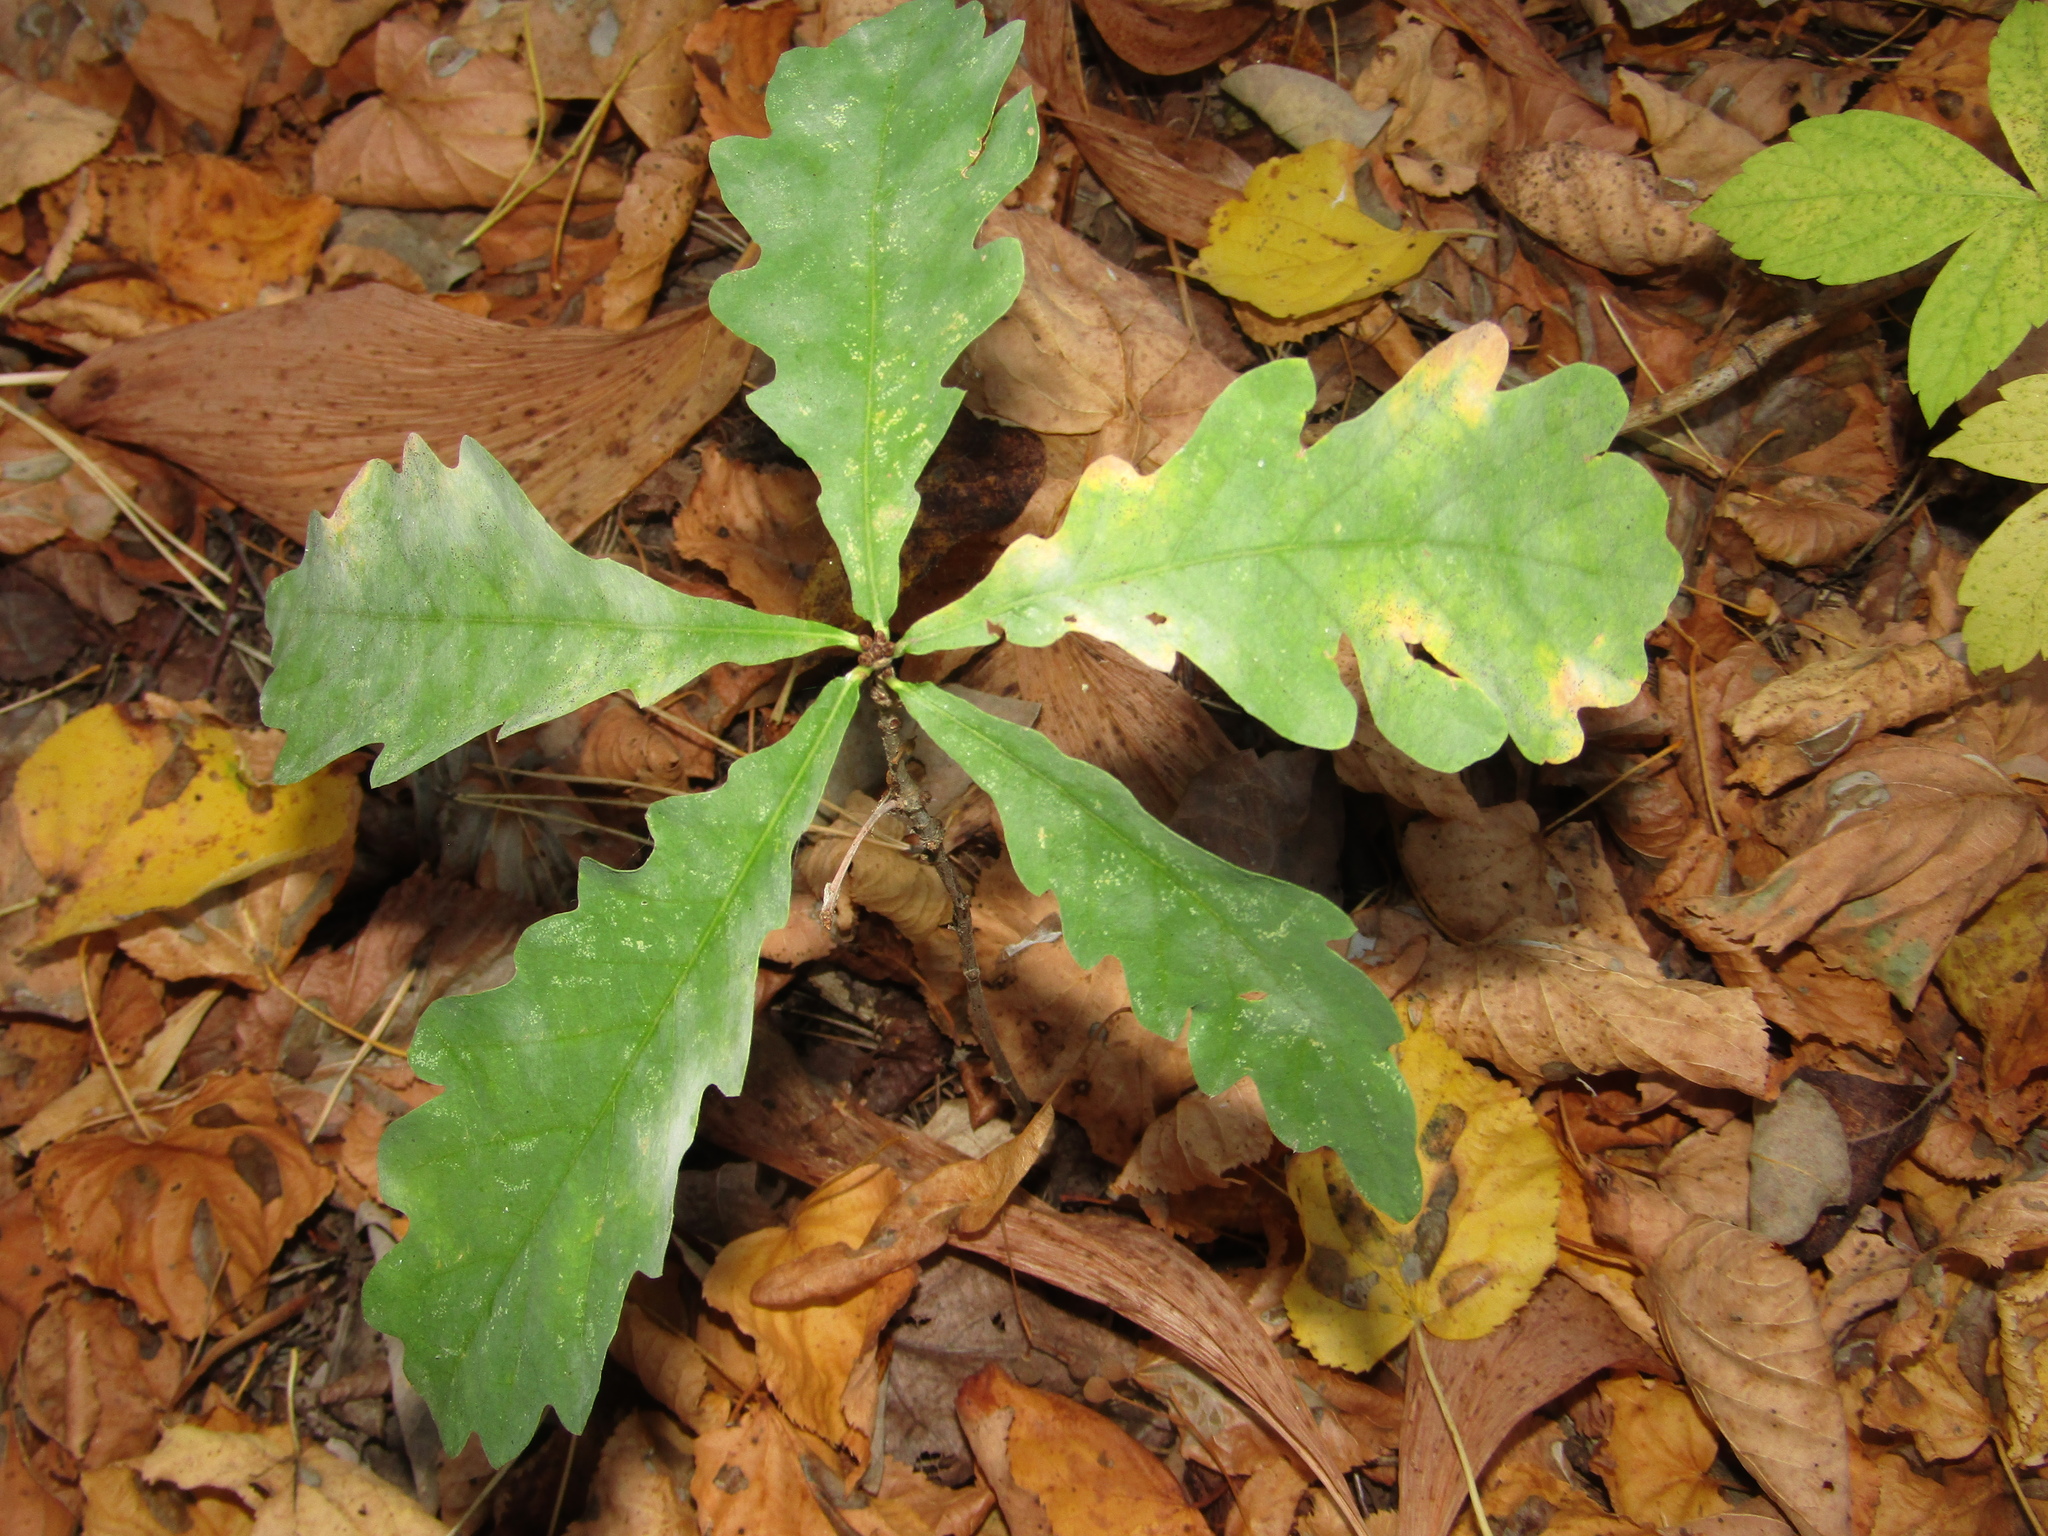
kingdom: Plantae
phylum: Tracheophyta
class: Magnoliopsida
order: Fagales
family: Fagaceae
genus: Quercus
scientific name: Quercus robur
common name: Pedunculate oak
